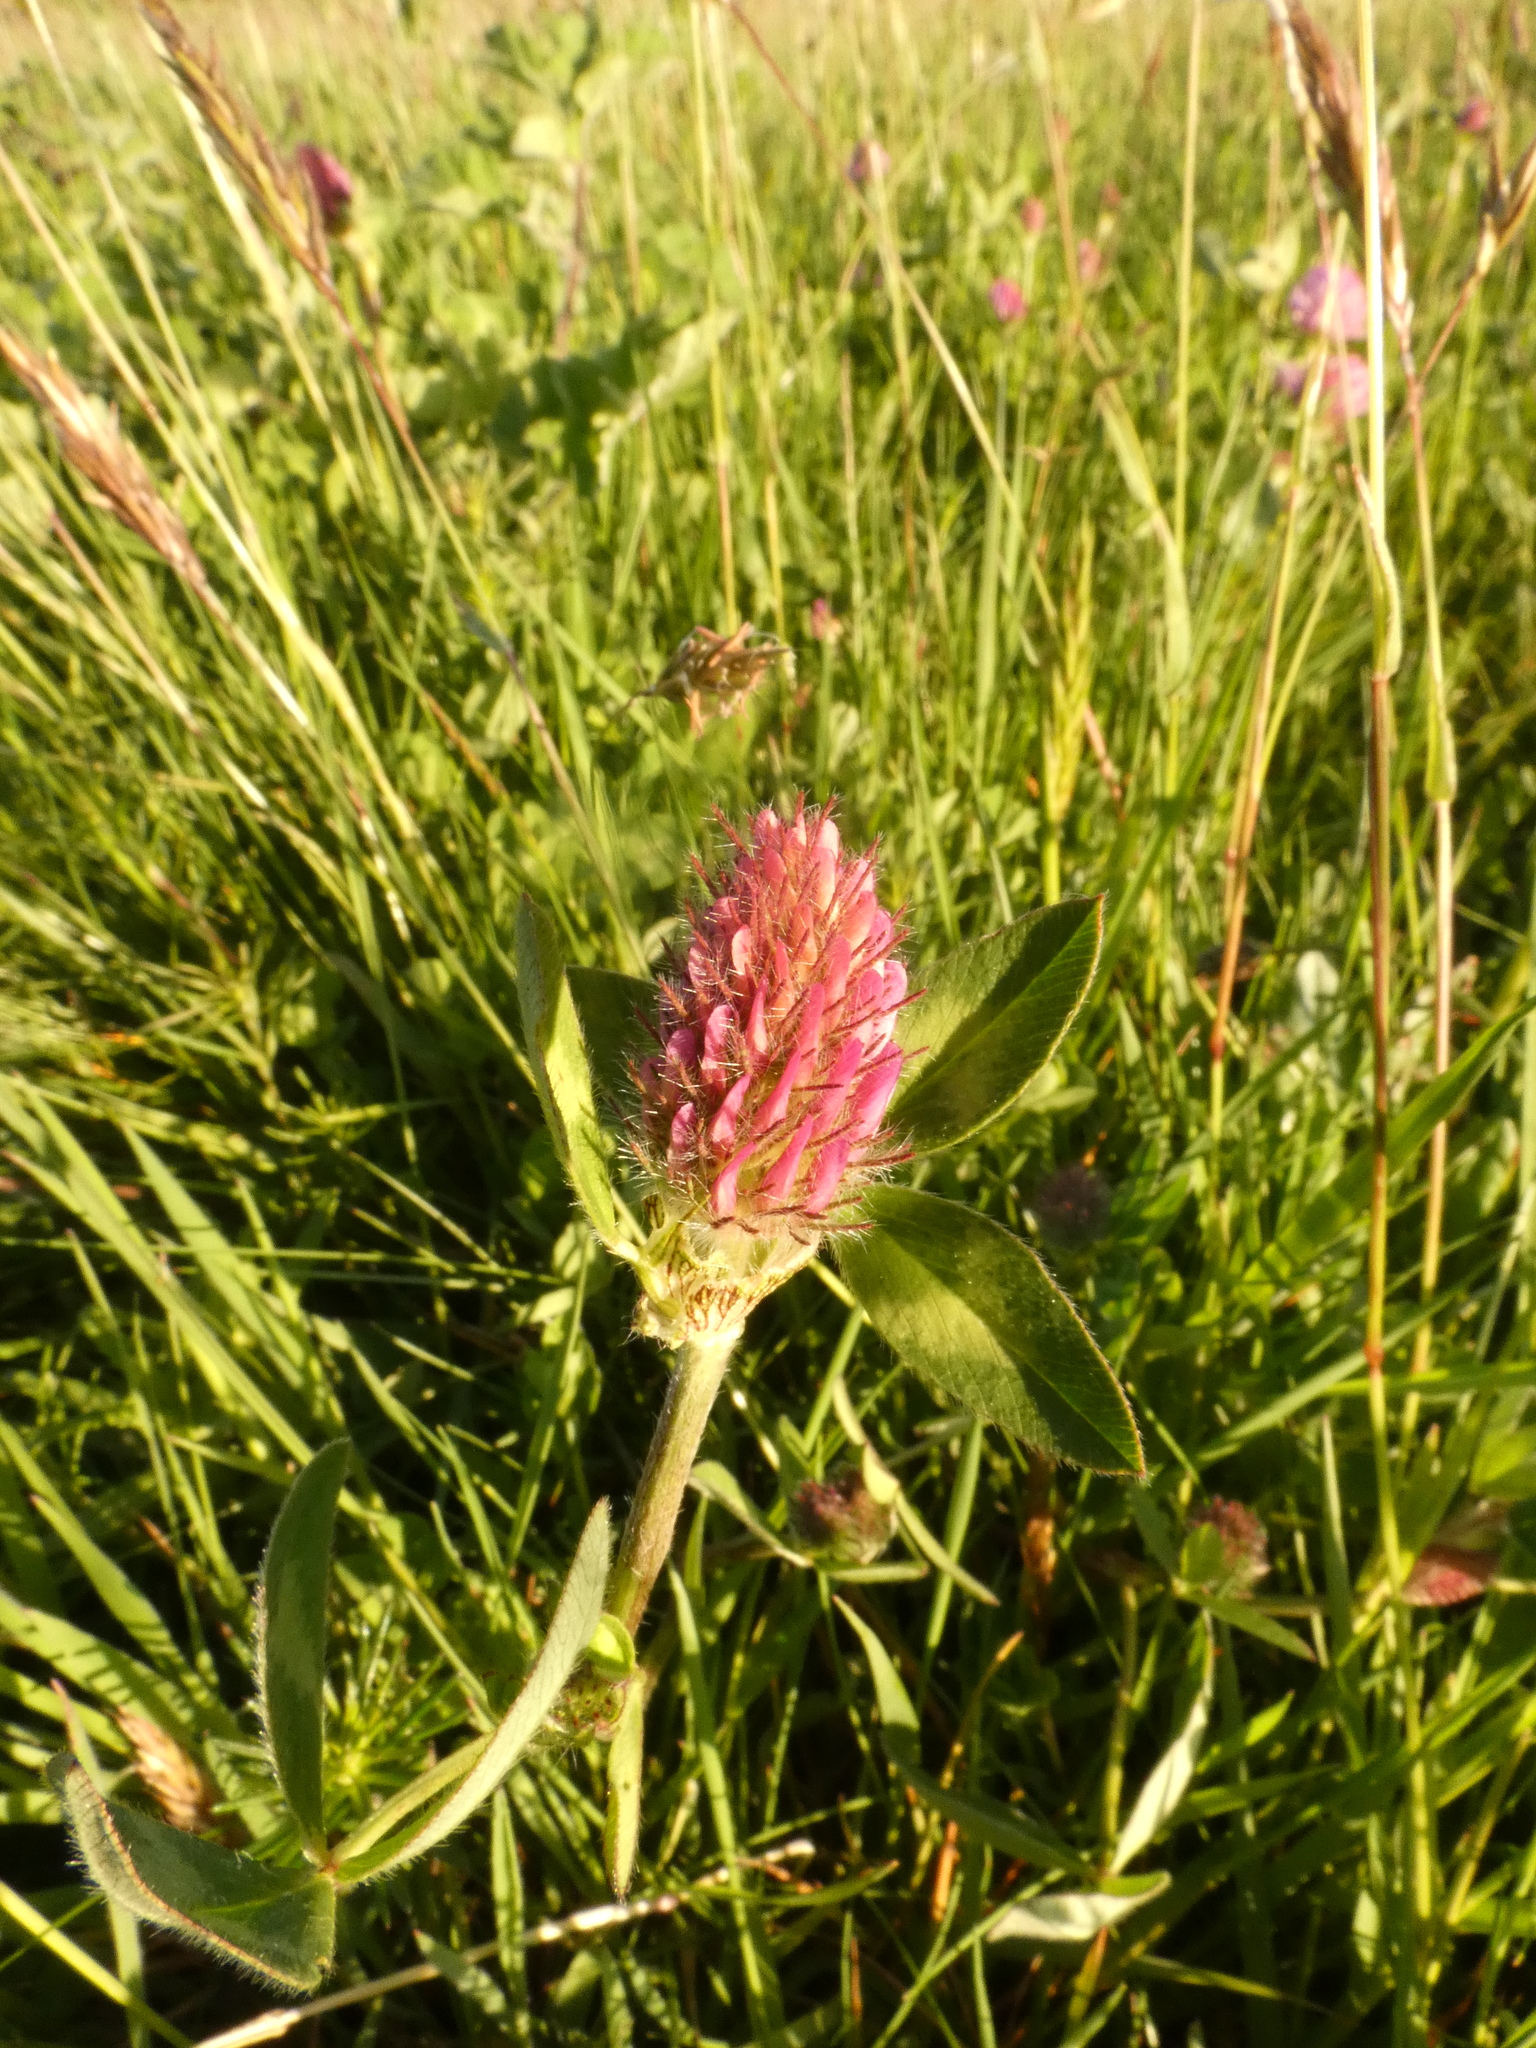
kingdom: Plantae
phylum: Tracheophyta
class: Magnoliopsida
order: Fabales
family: Fabaceae
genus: Trifolium
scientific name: Trifolium pratense
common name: Red clover
